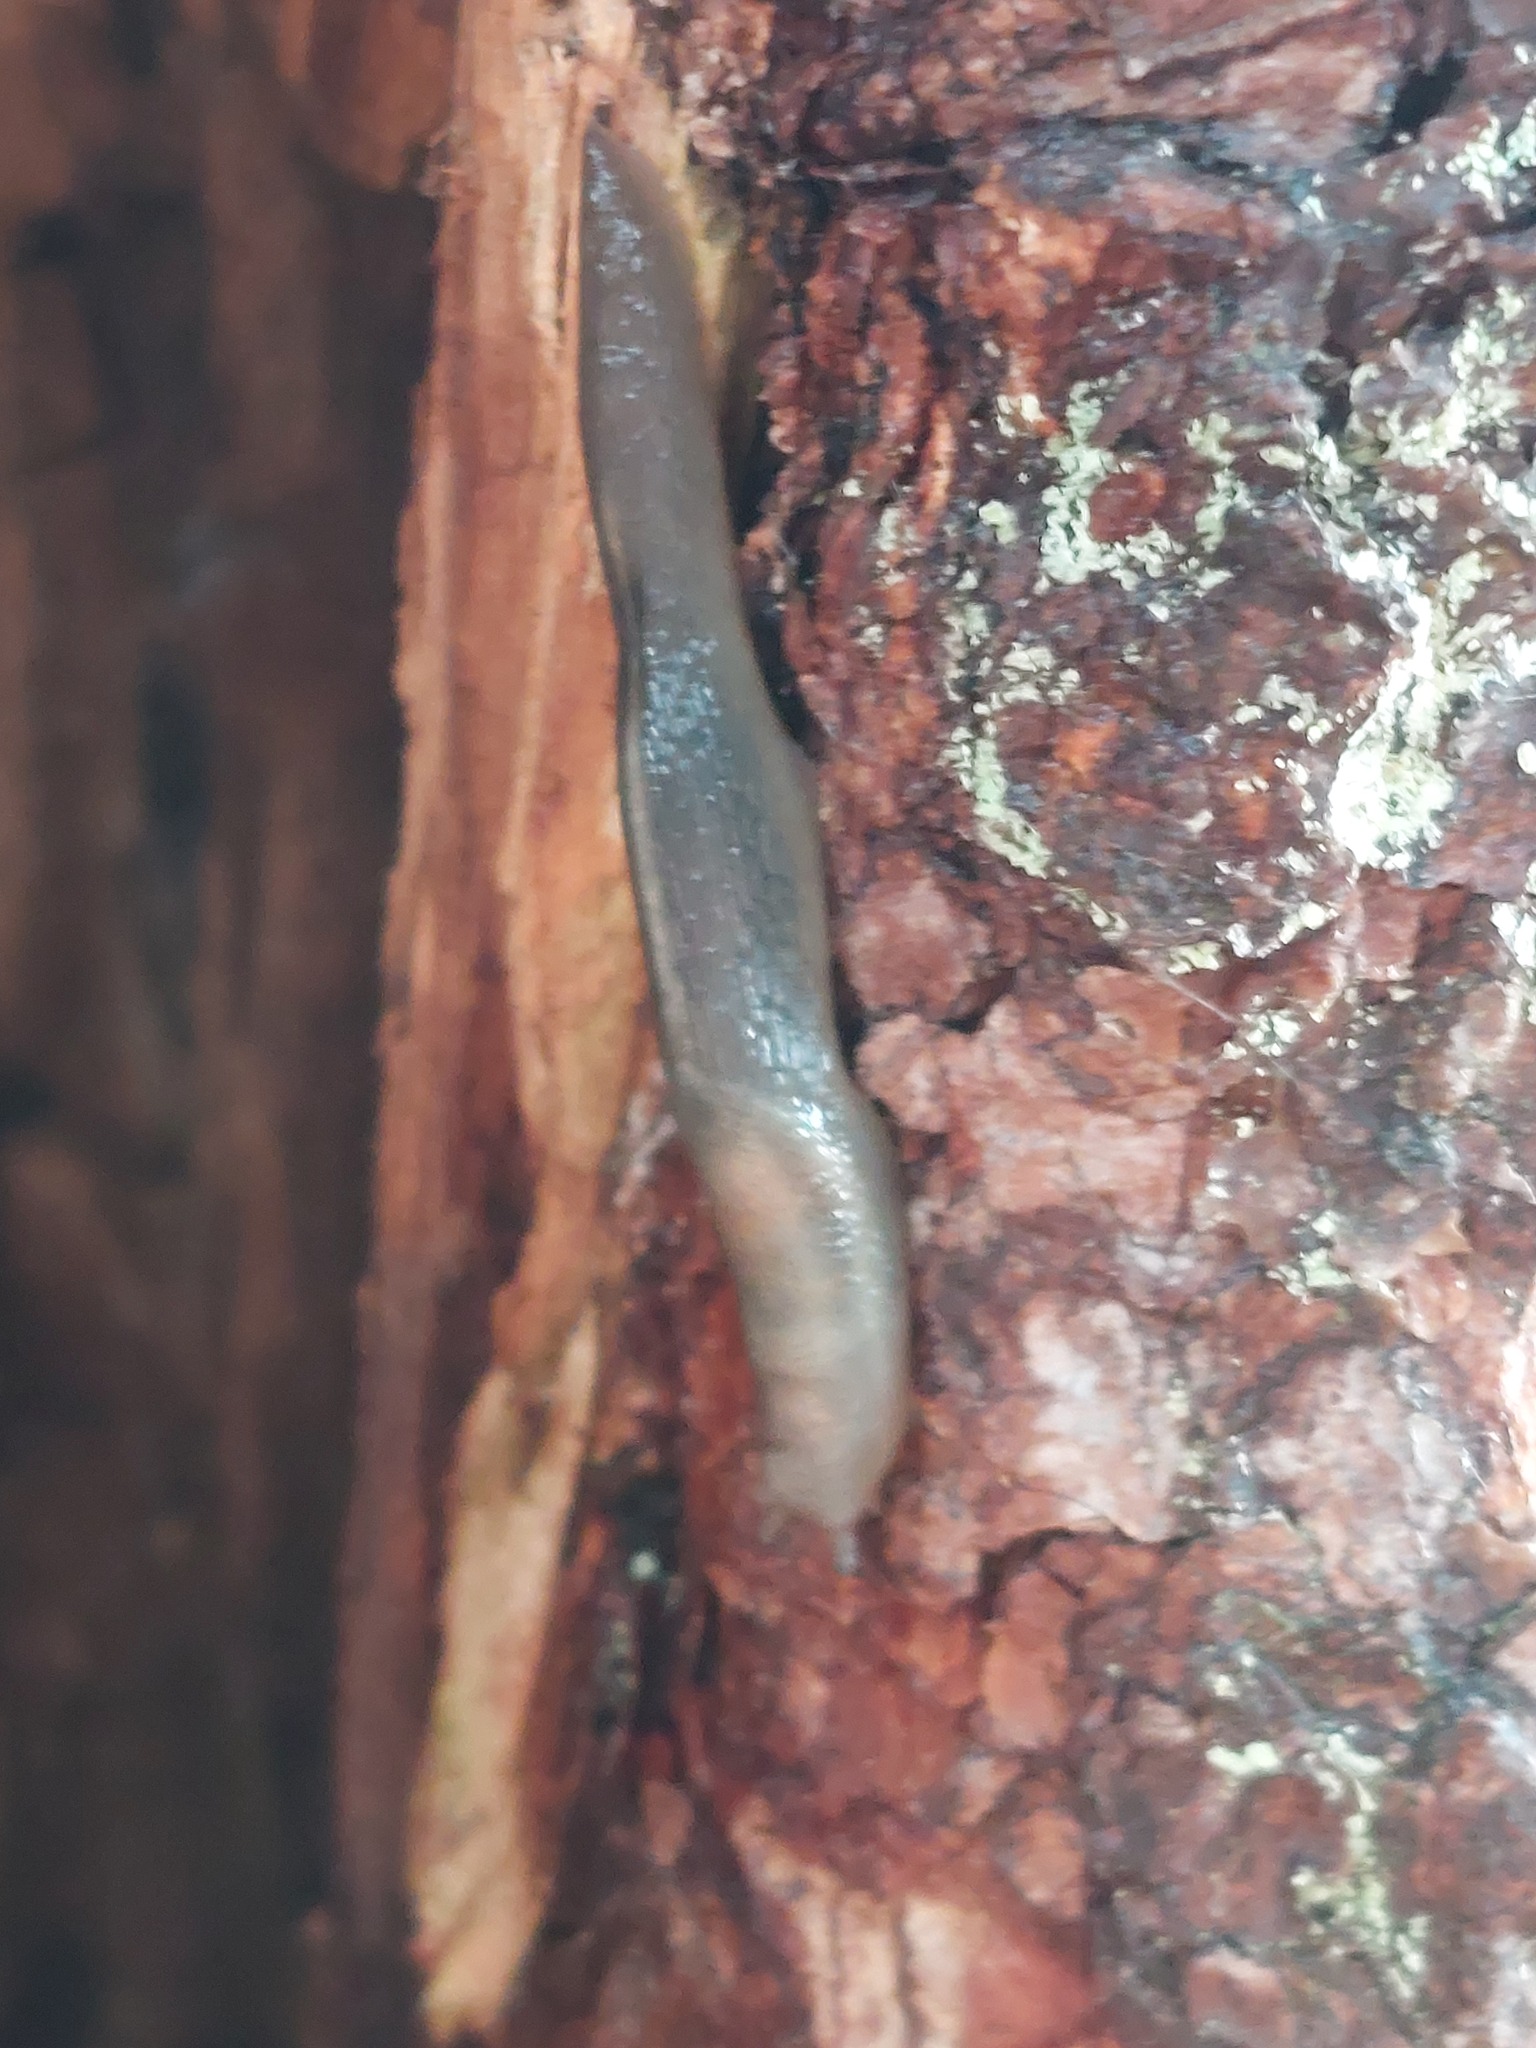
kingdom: Animalia
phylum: Mollusca
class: Gastropoda
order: Stylommatophora
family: Limacidae
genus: Lehmannia
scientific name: Lehmannia marginata
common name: Tree slug
